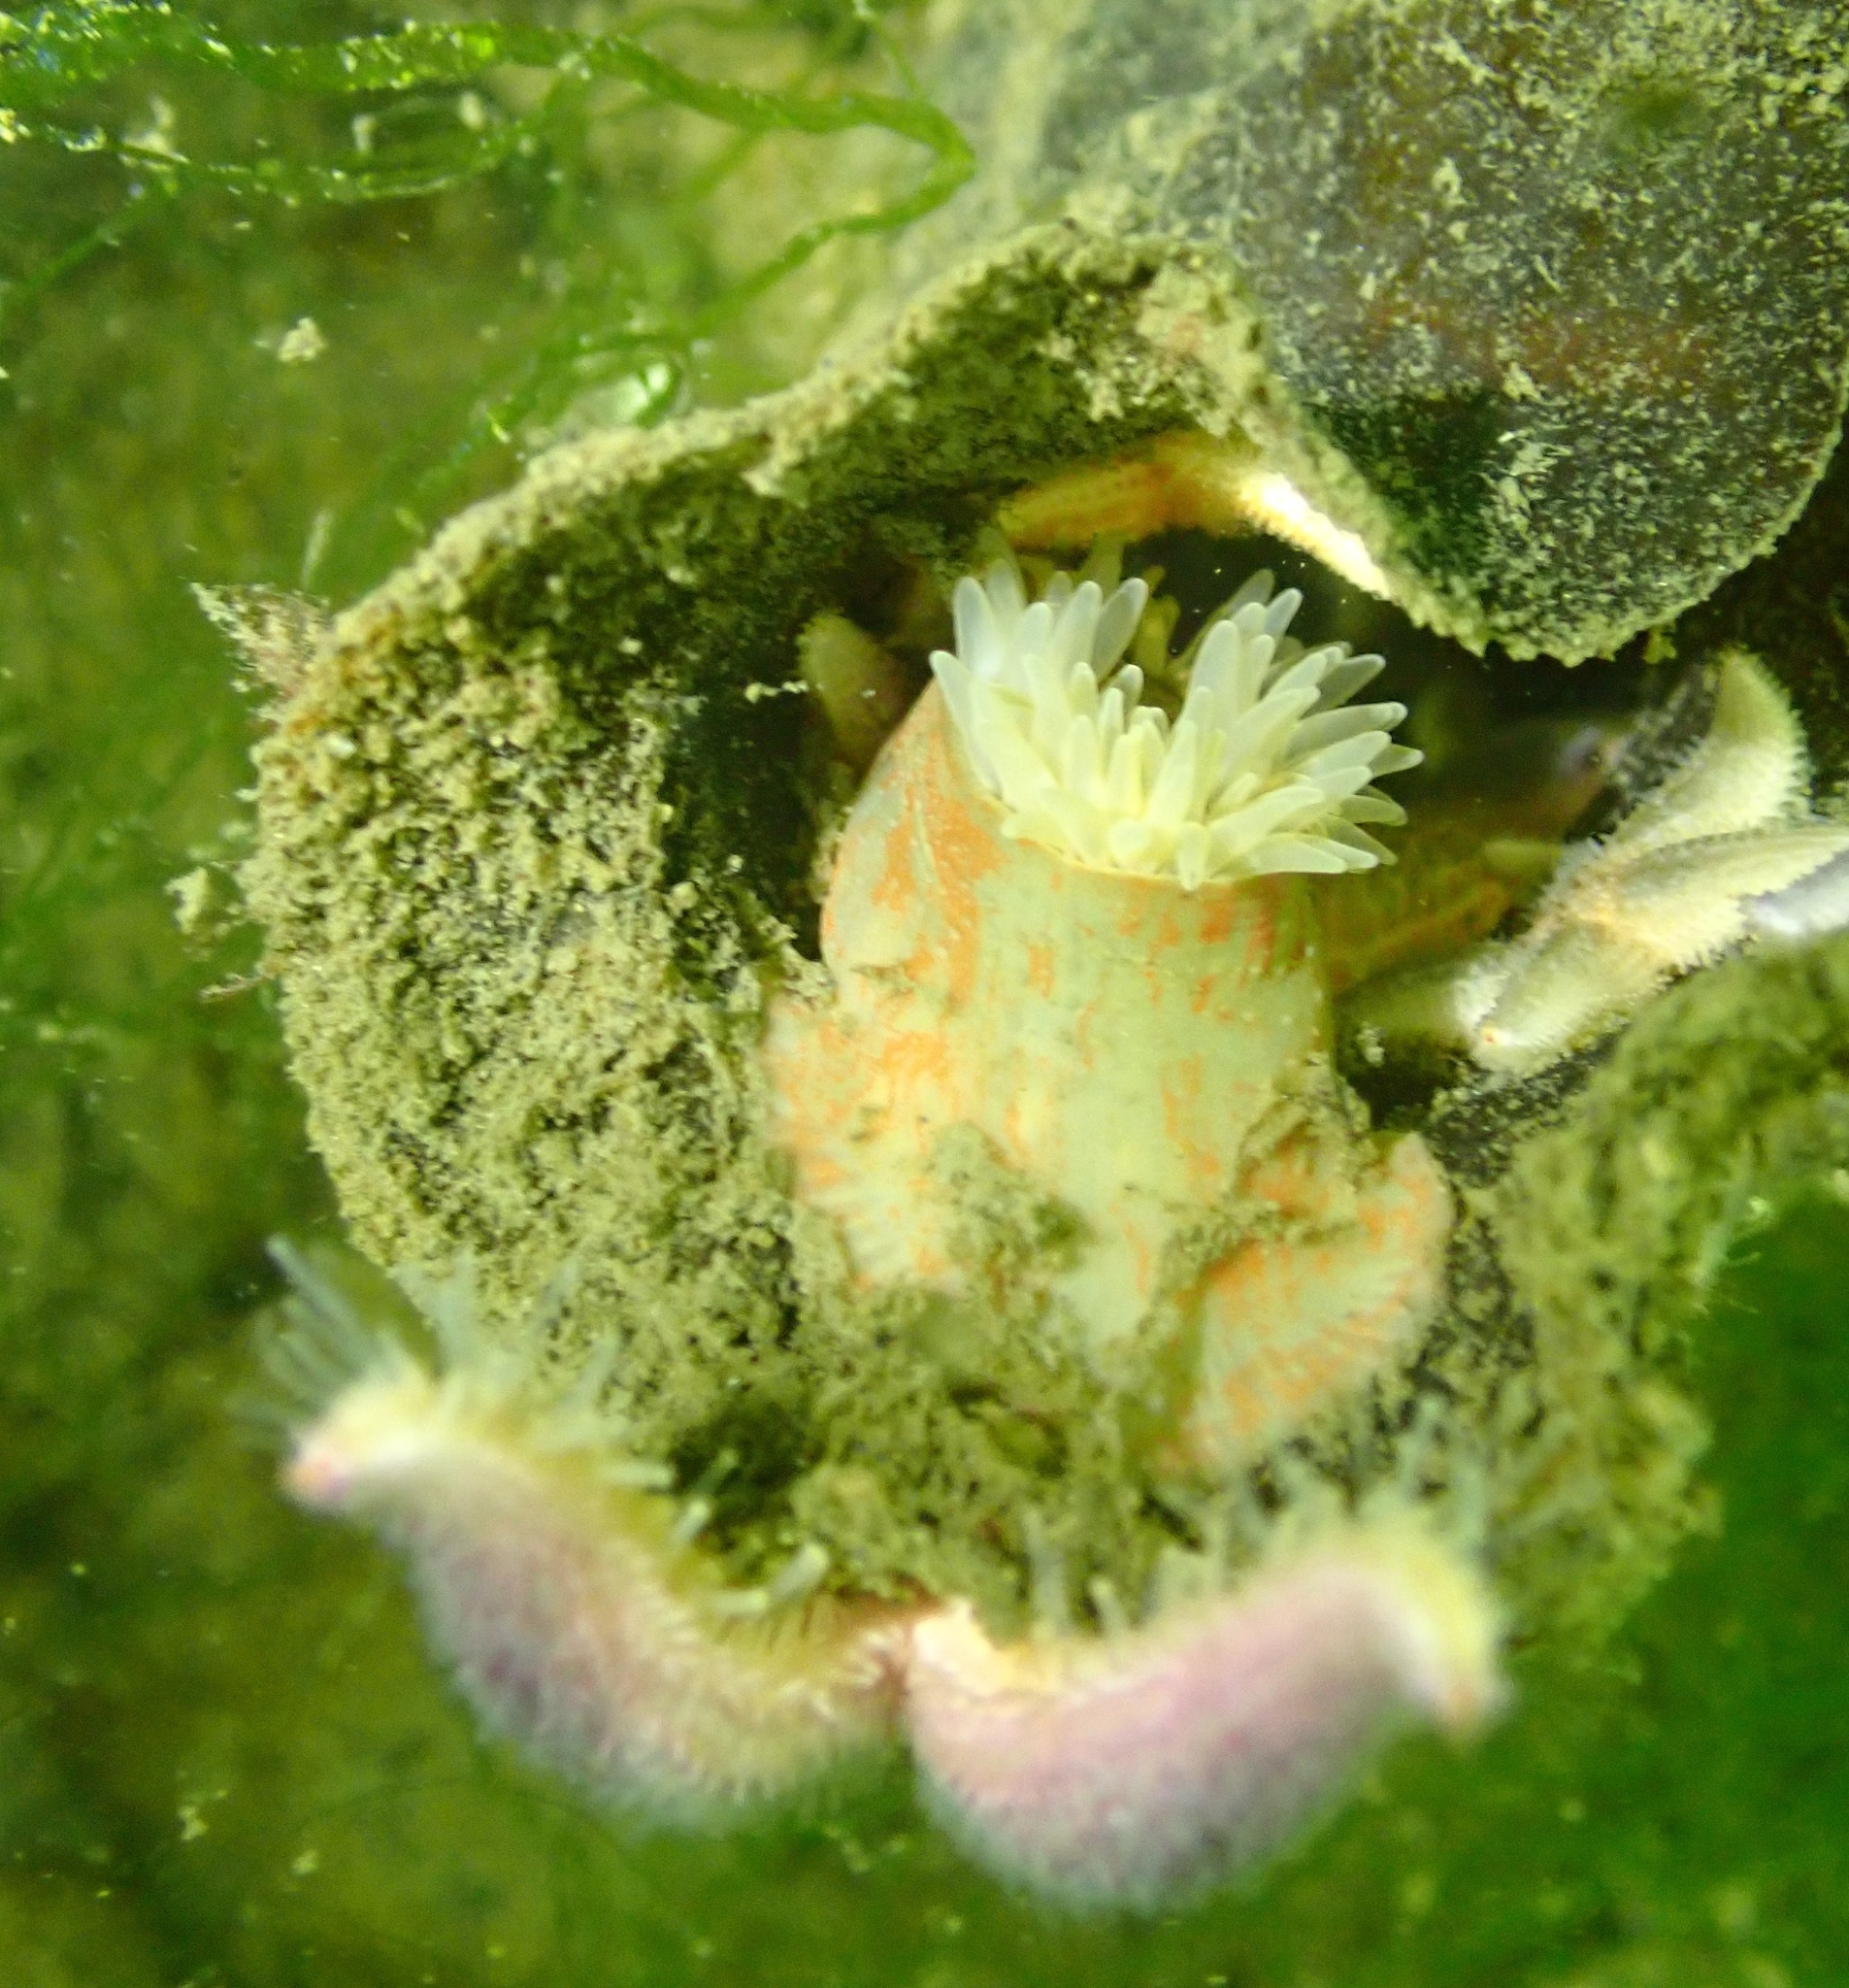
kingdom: Animalia
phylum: Cnidaria
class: Anthozoa
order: Actiniaria
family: Actiniidae
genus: Urticina
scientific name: Urticina felina
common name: Dahlia anemone
